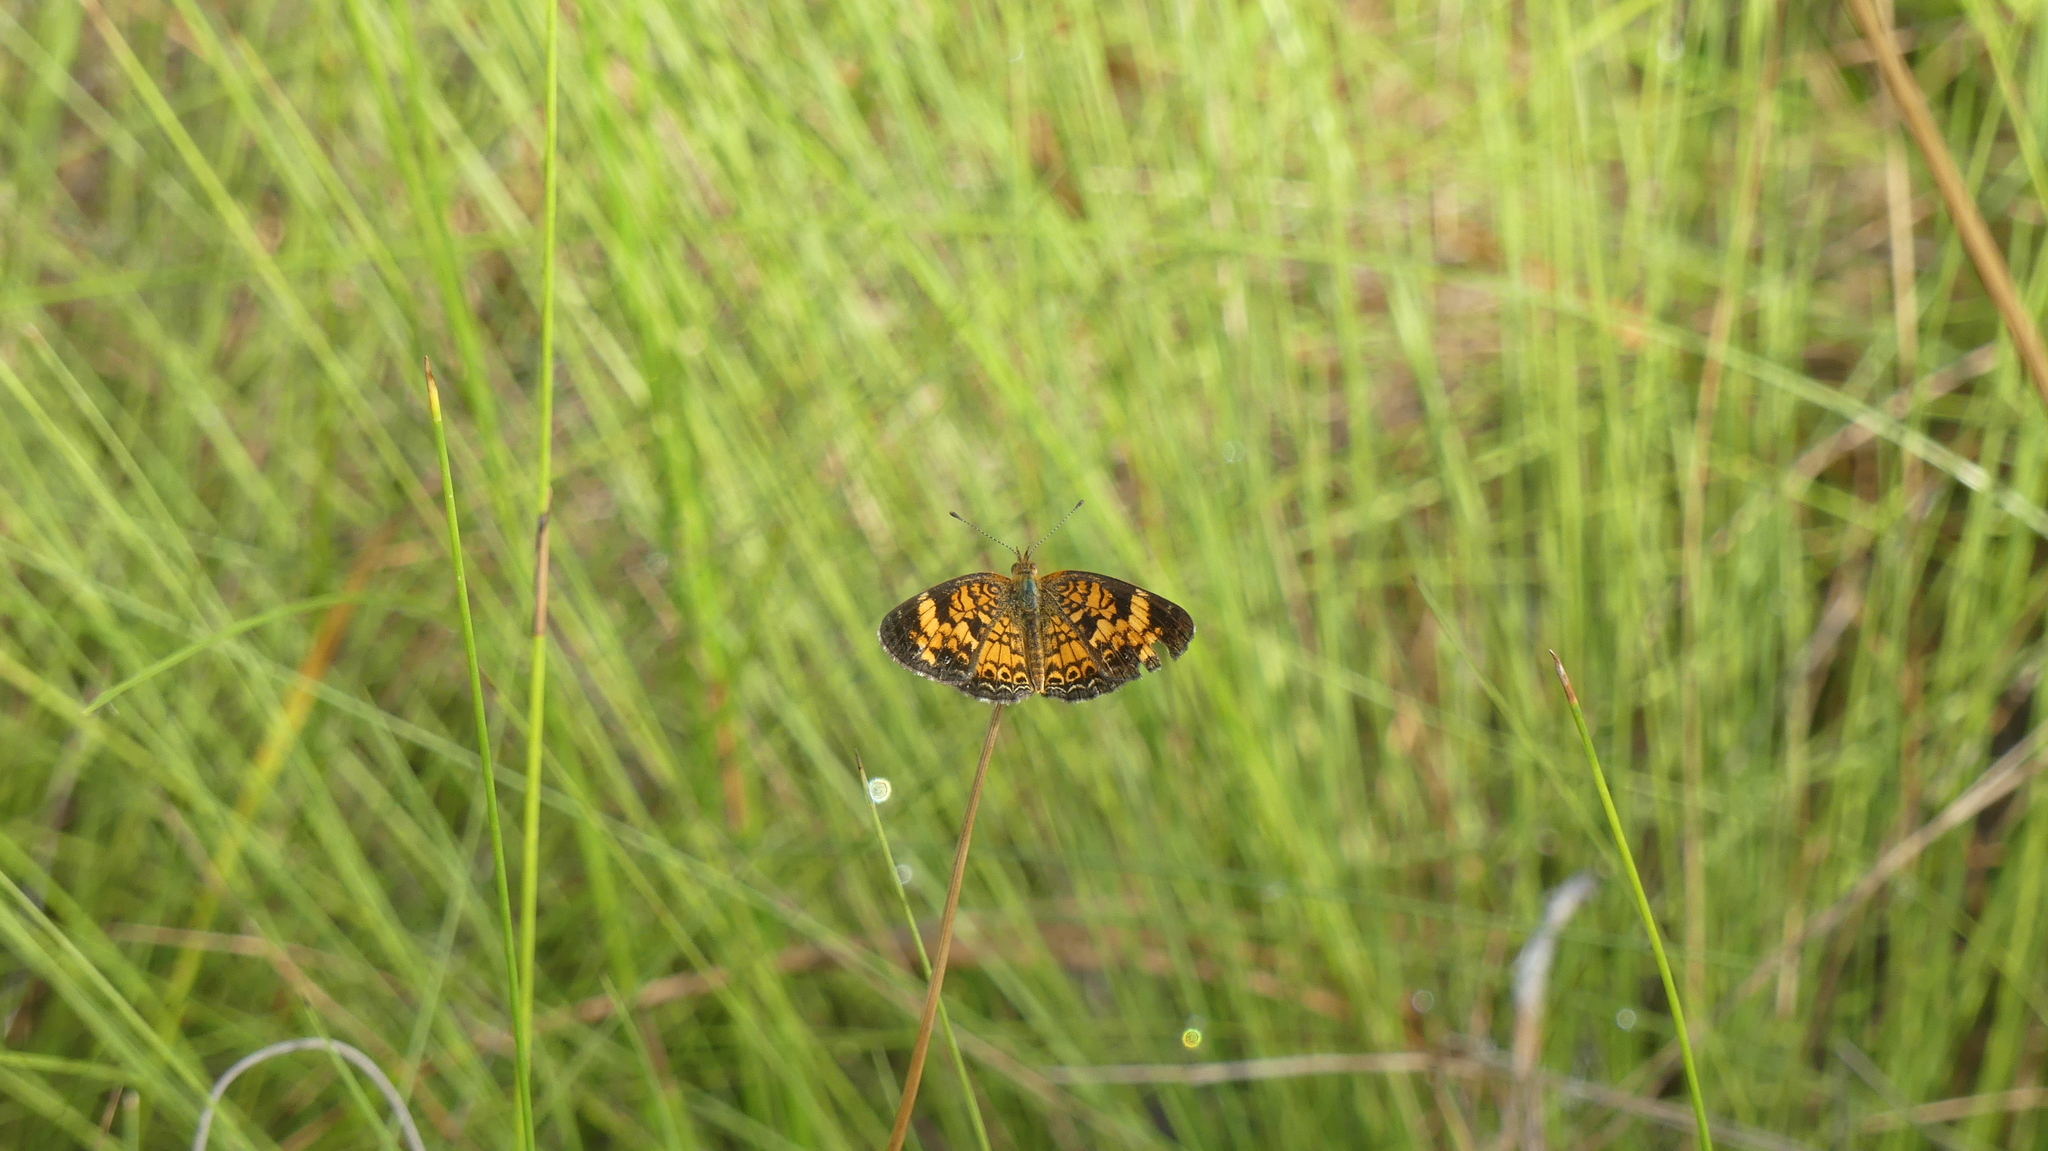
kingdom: Animalia
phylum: Arthropoda
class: Insecta
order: Lepidoptera
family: Nymphalidae
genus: Phyciodes
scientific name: Phyciodes tharos
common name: Pearl crescent
